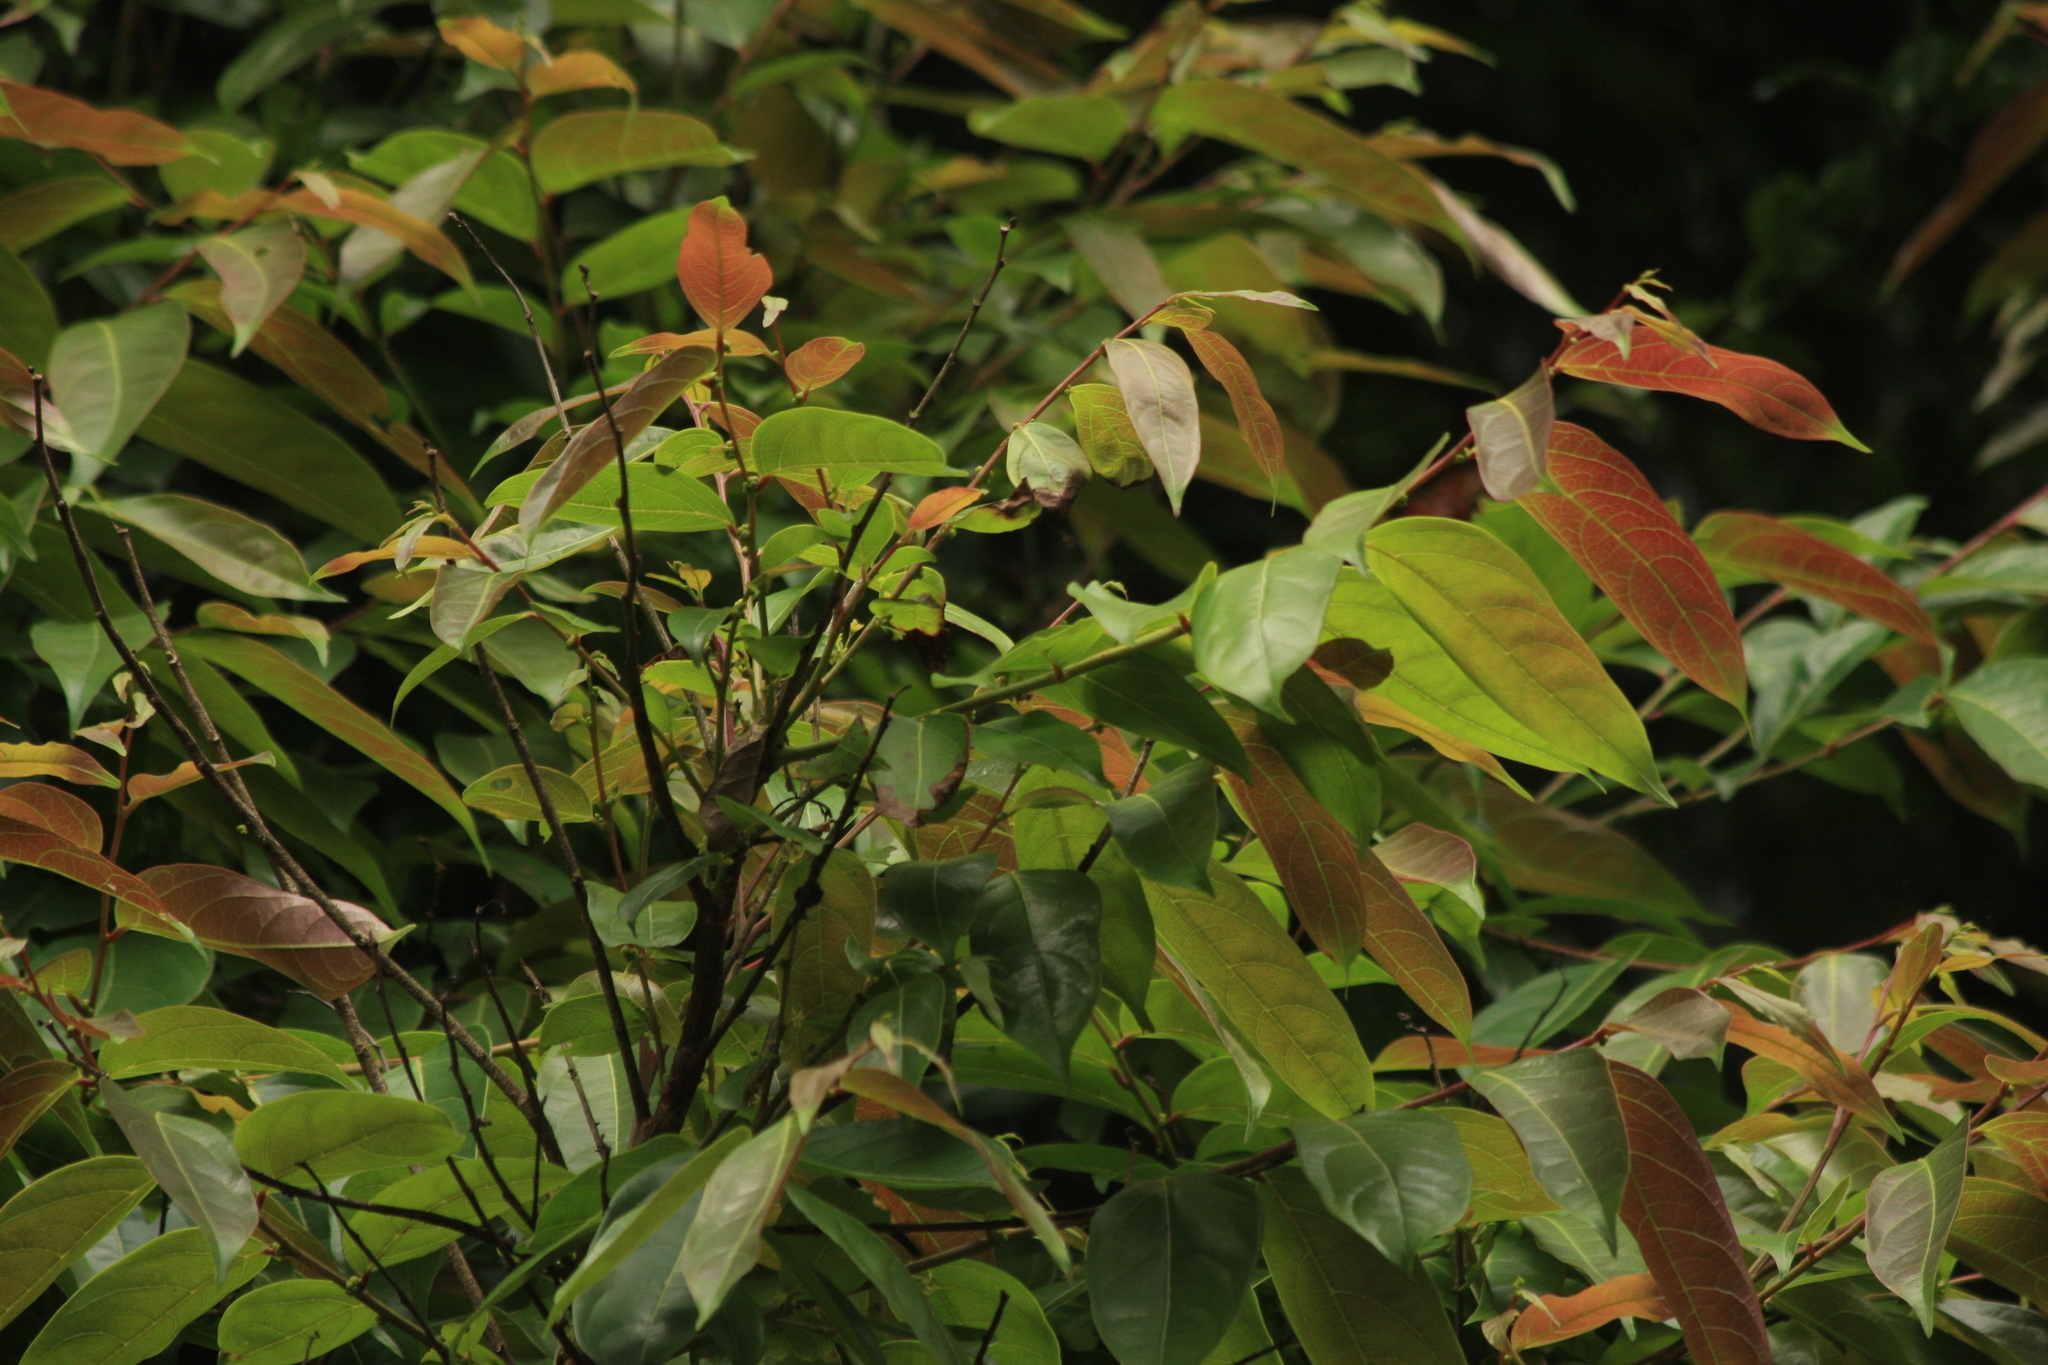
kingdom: Plantae
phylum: Tracheophyta
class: Magnoliopsida
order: Malpighiales
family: Phyllanthaceae
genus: Glochidion
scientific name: Glochidion ellipticum
